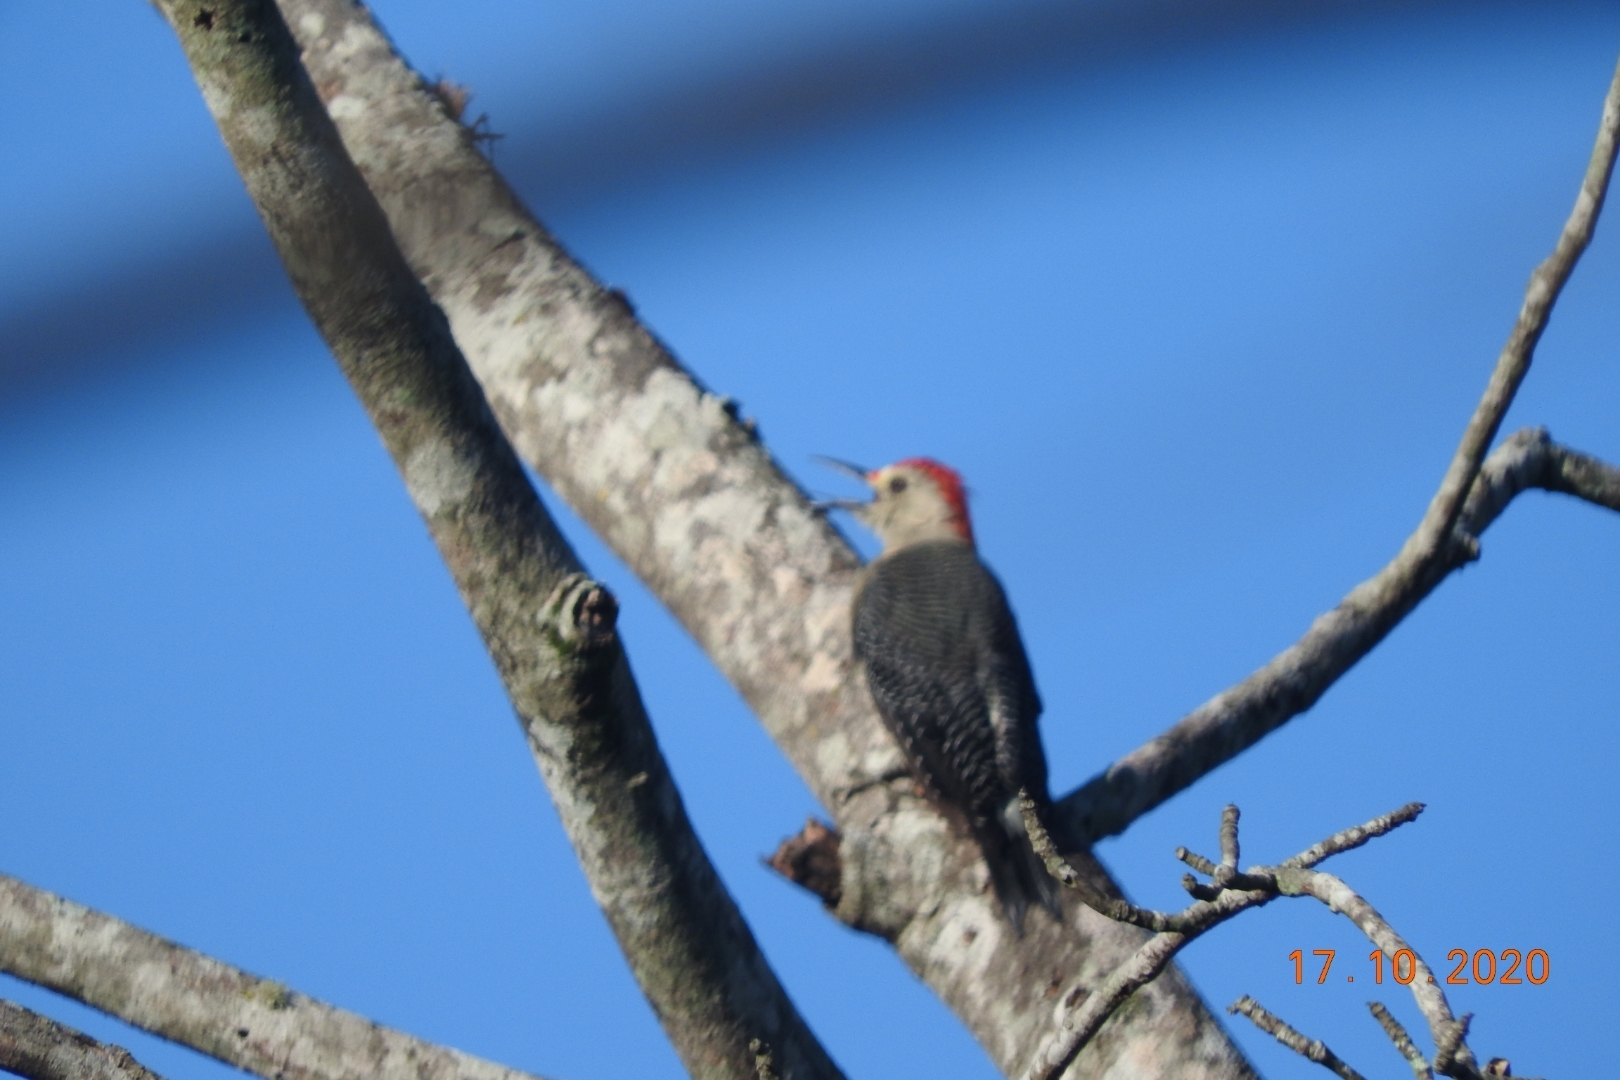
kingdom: Animalia
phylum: Chordata
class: Aves
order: Piciformes
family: Picidae
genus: Melanerpes
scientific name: Melanerpes aurifrons
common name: Golden-fronted woodpecker
